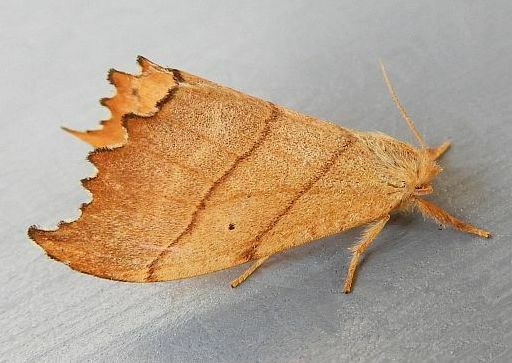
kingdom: Animalia
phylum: Arthropoda
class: Insecta
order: Lepidoptera
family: Drepanidae
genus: Falcaria
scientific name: Falcaria bilineata
